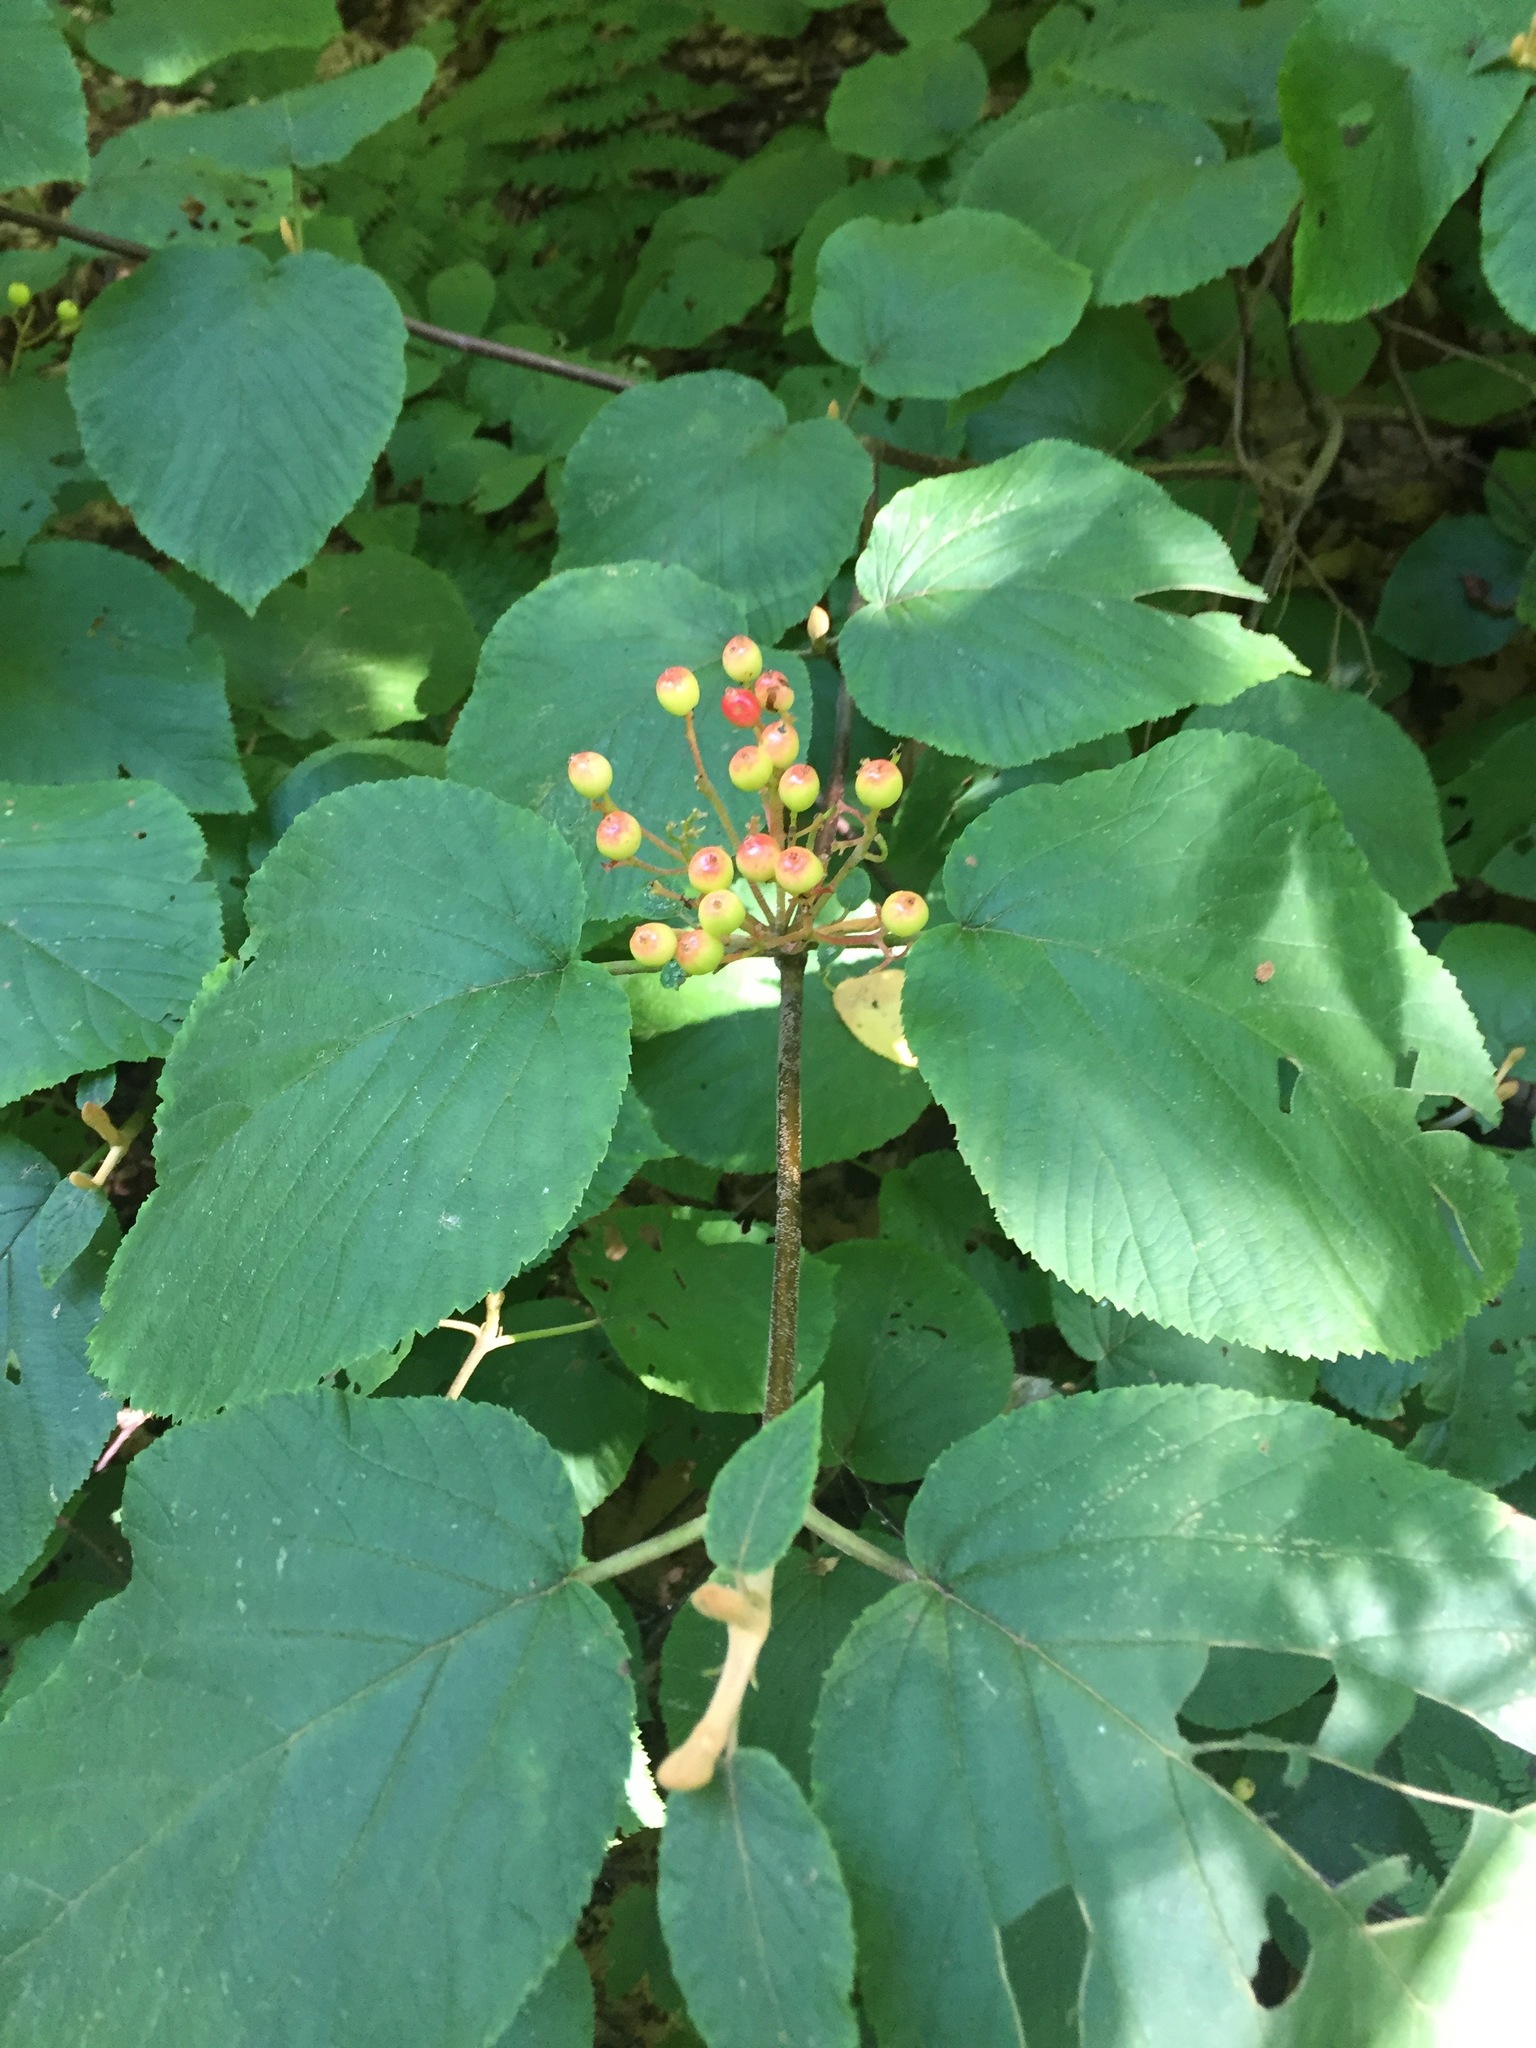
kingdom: Plantae
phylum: Tracheophyta
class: Magnoliopsida
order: Dipsacales
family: Viburnaceae
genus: Viburnum
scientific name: Viburnum lantanoides
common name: Hobblebush
